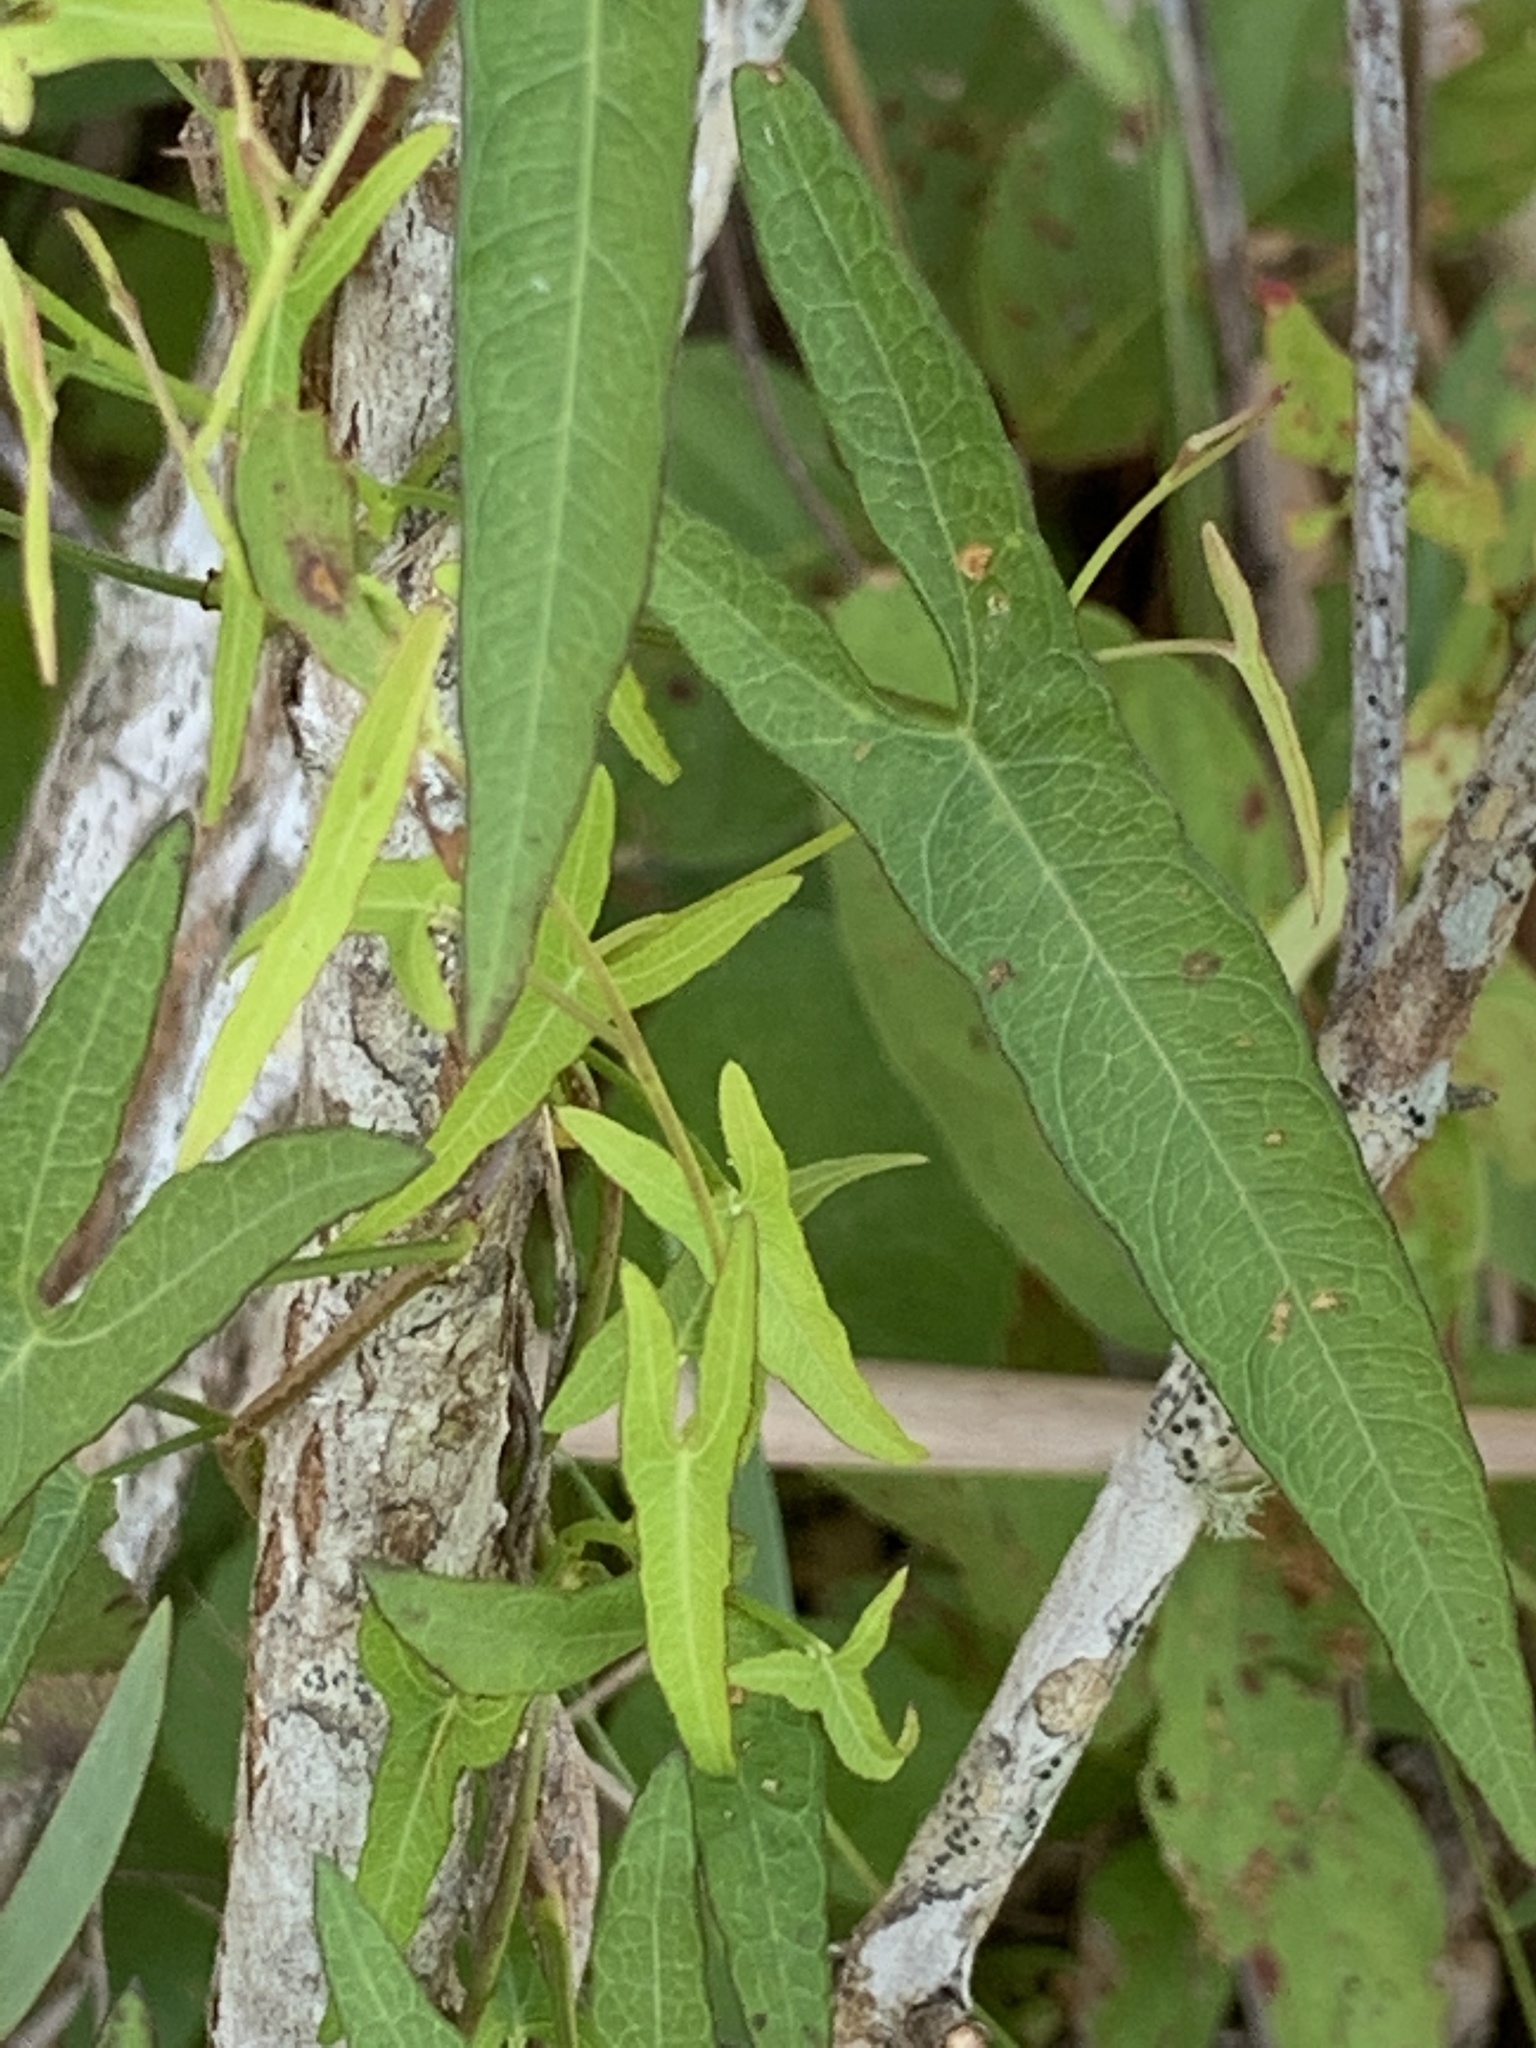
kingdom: Plantae
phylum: Tracheophyta
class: Magnoliopsida
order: Solanales
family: Convolvulaceae
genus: Ipomoea
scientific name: Ipomoea sagittata
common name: Saltmarsh morning glory
